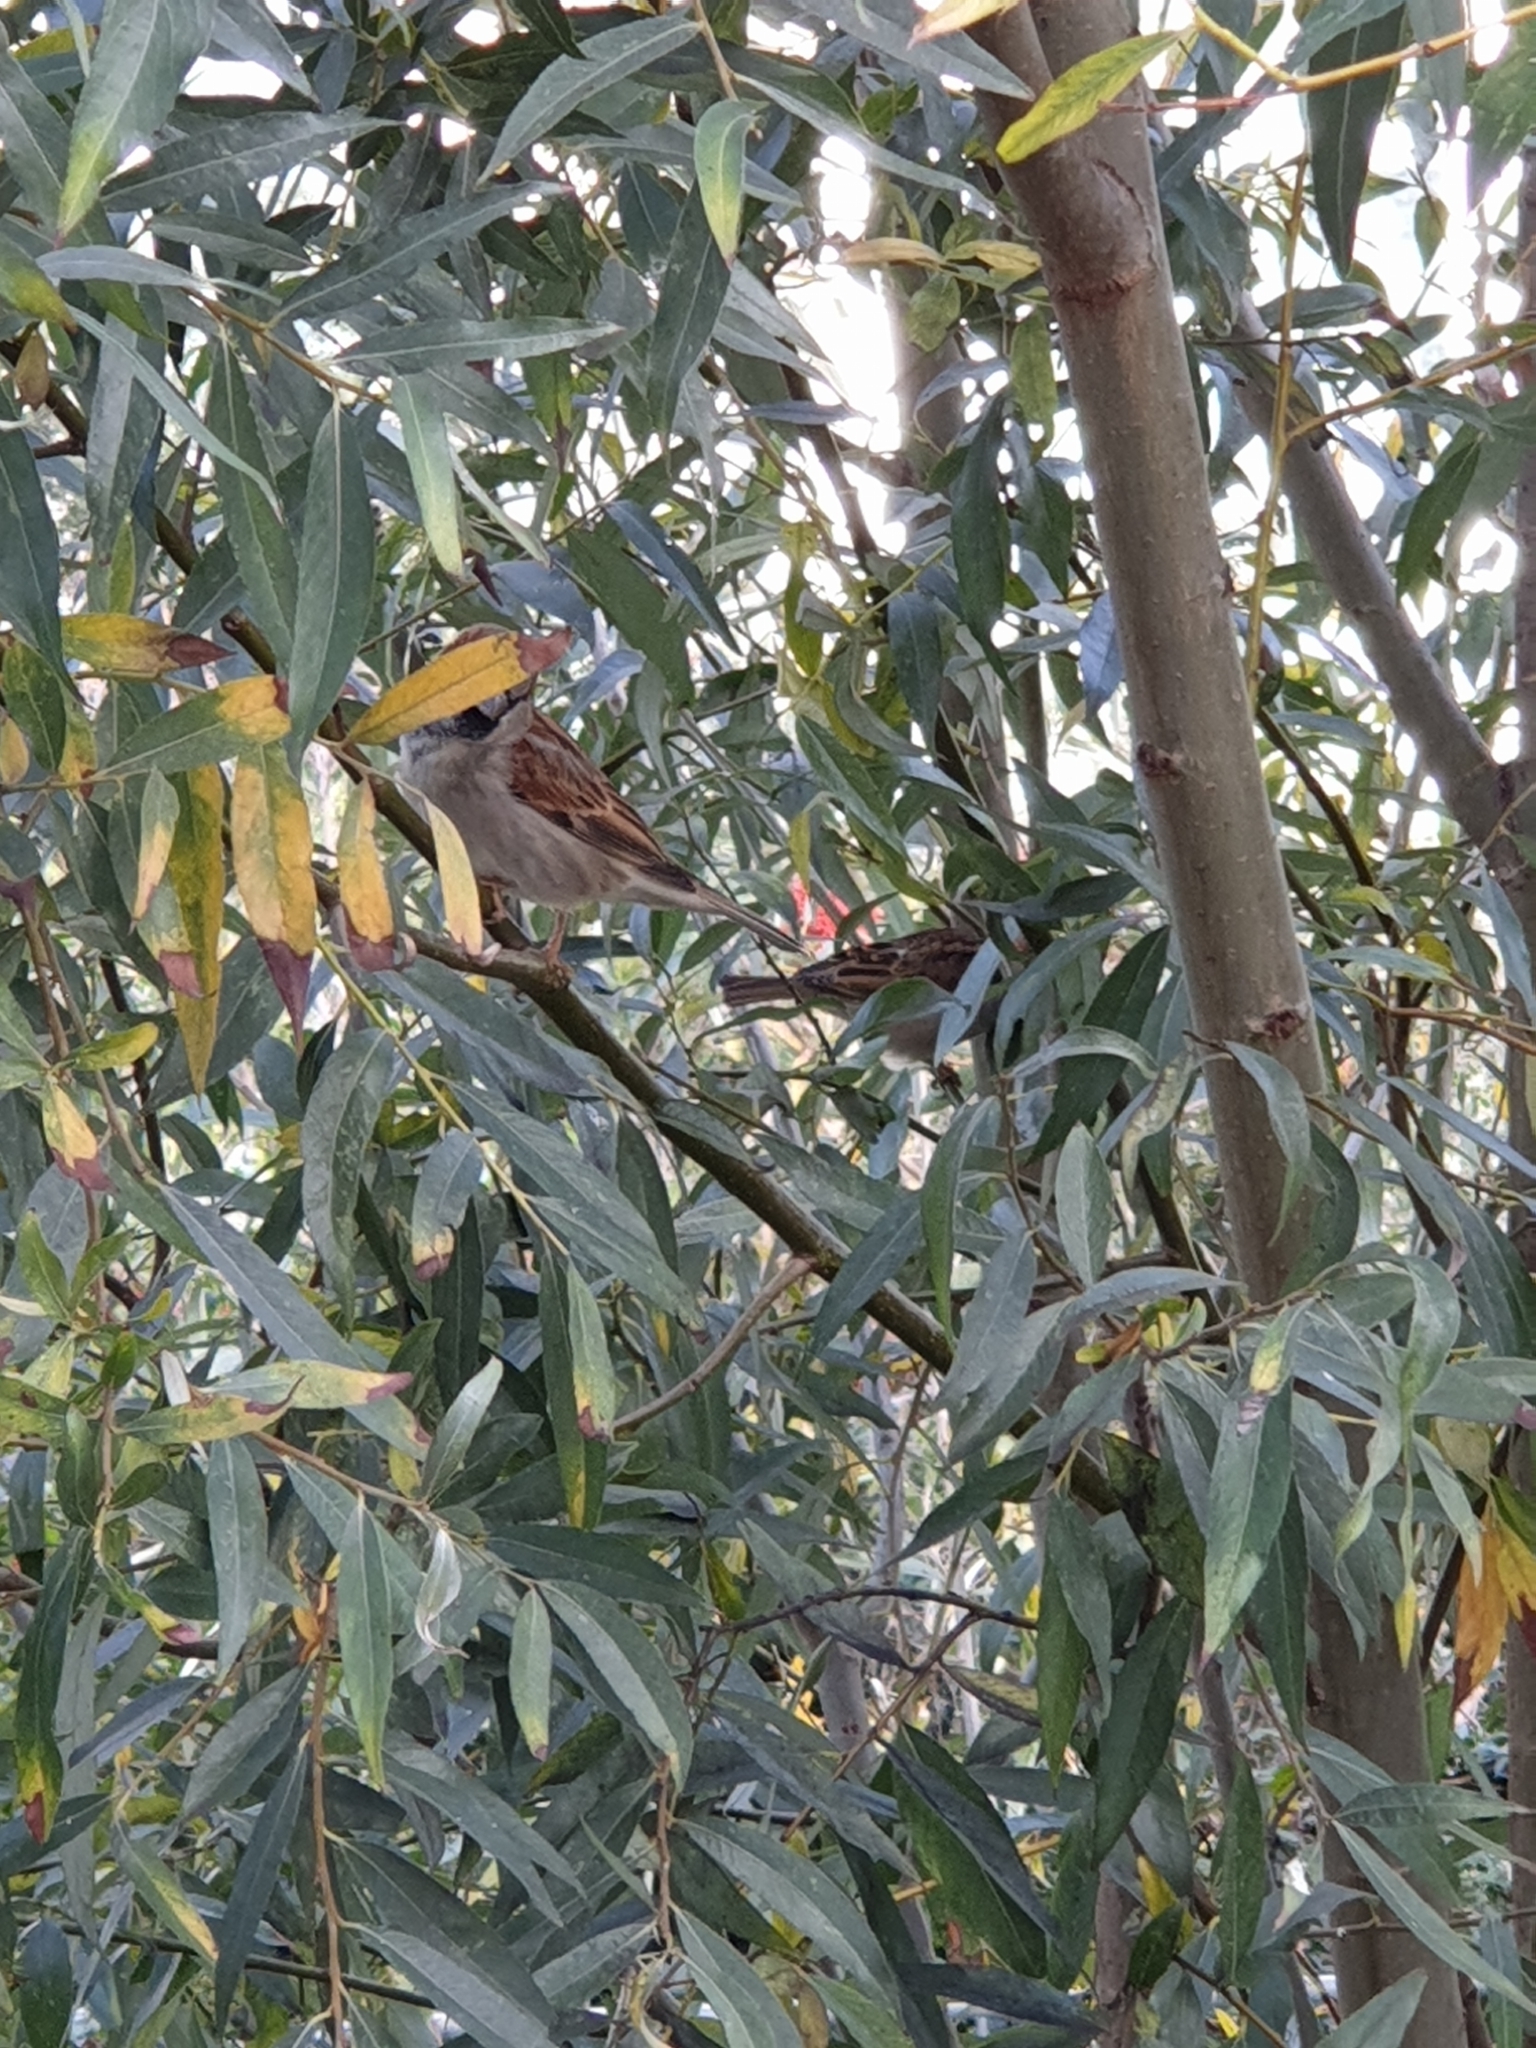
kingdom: Animalia
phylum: Chordata
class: Aves
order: Passeriformes
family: Passeridae
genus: Passer
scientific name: Passer domesticus
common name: House sparrow
